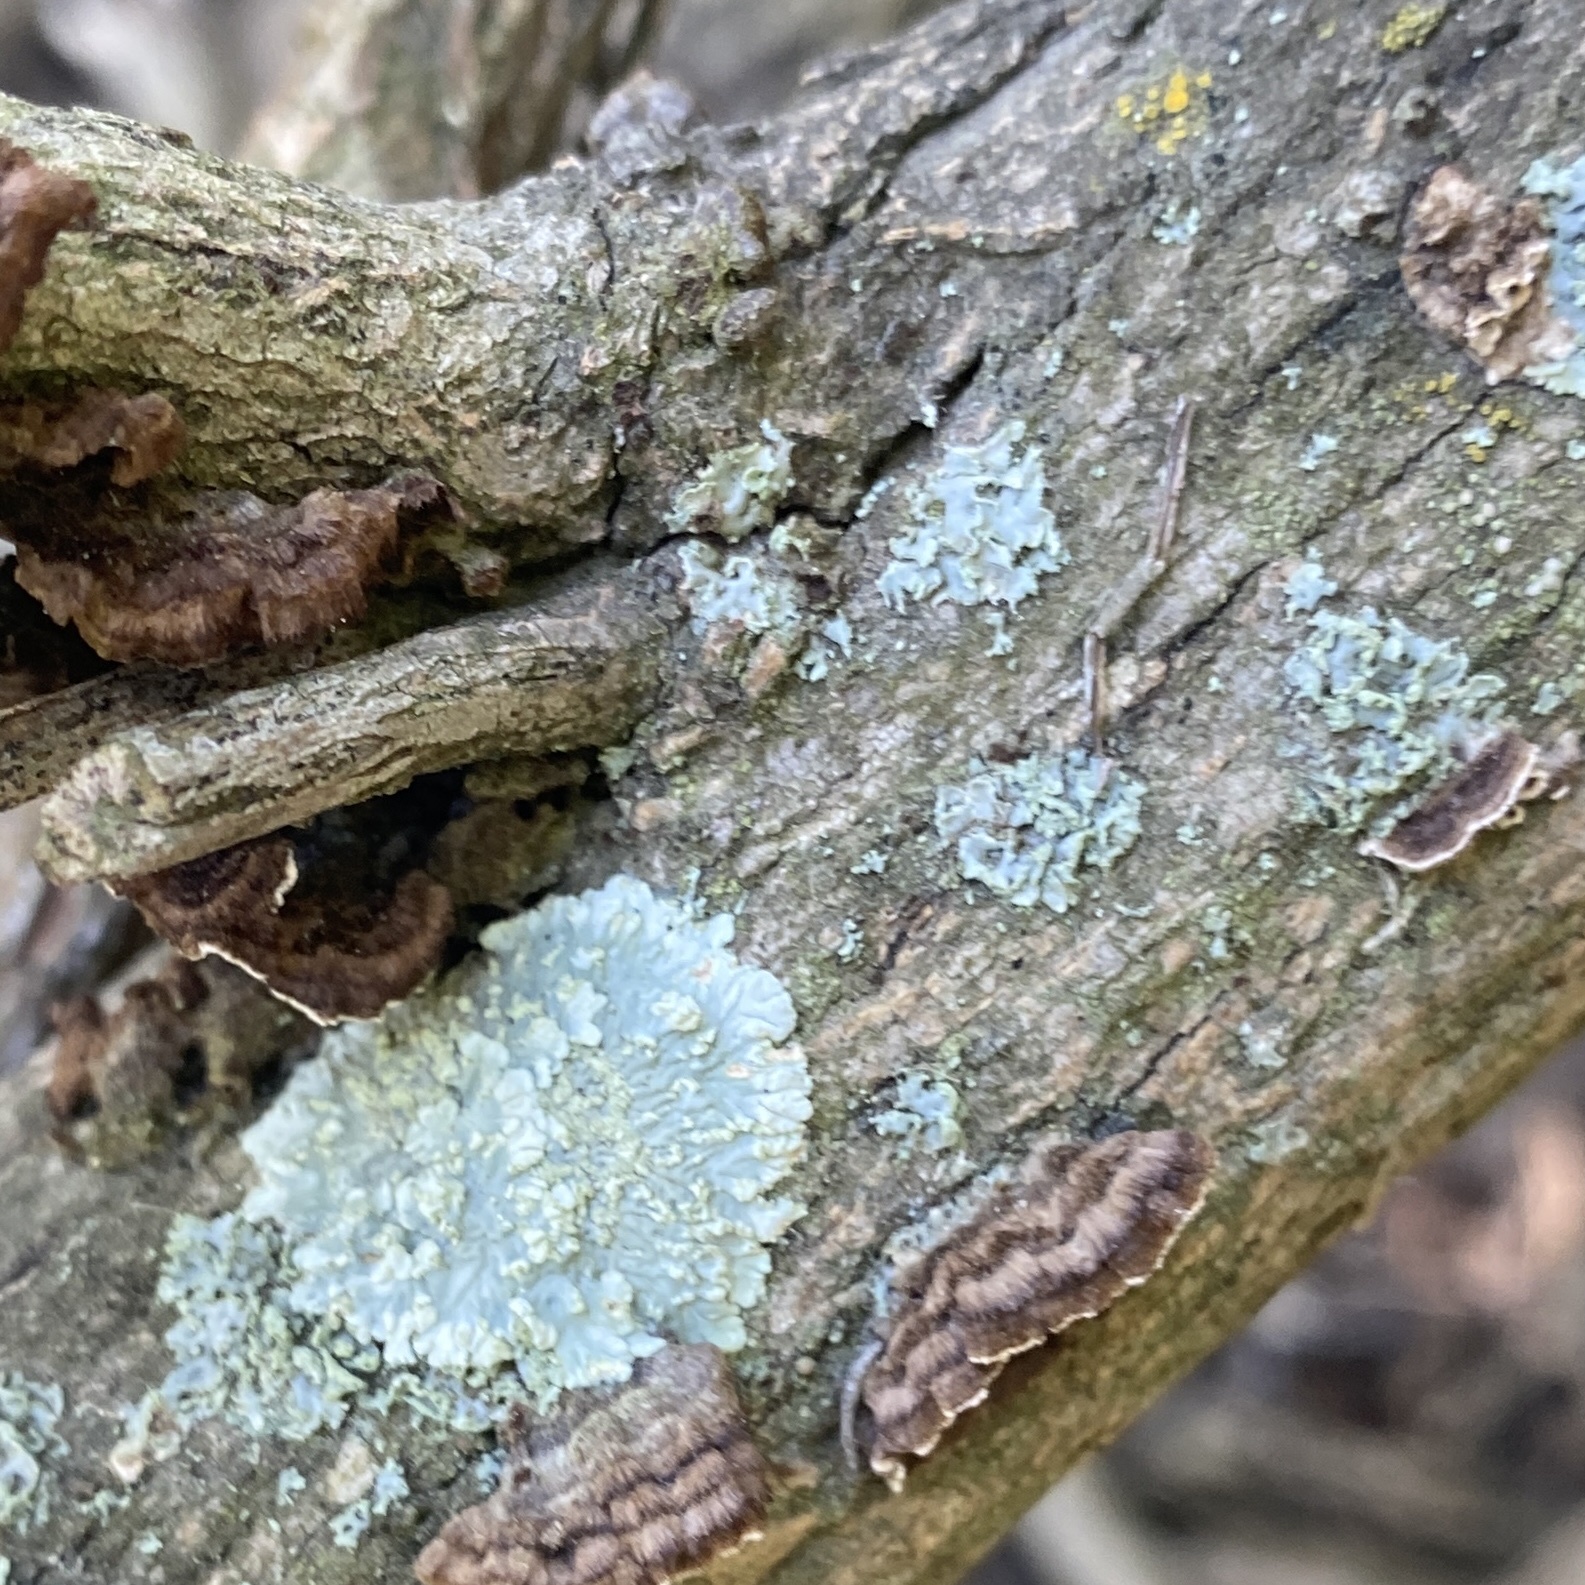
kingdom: Fungi
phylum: Ascomycota
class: Lecanoromycetes
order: Caliciales
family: Caliciaceae
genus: Diploicia
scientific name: Diploicia canescens
